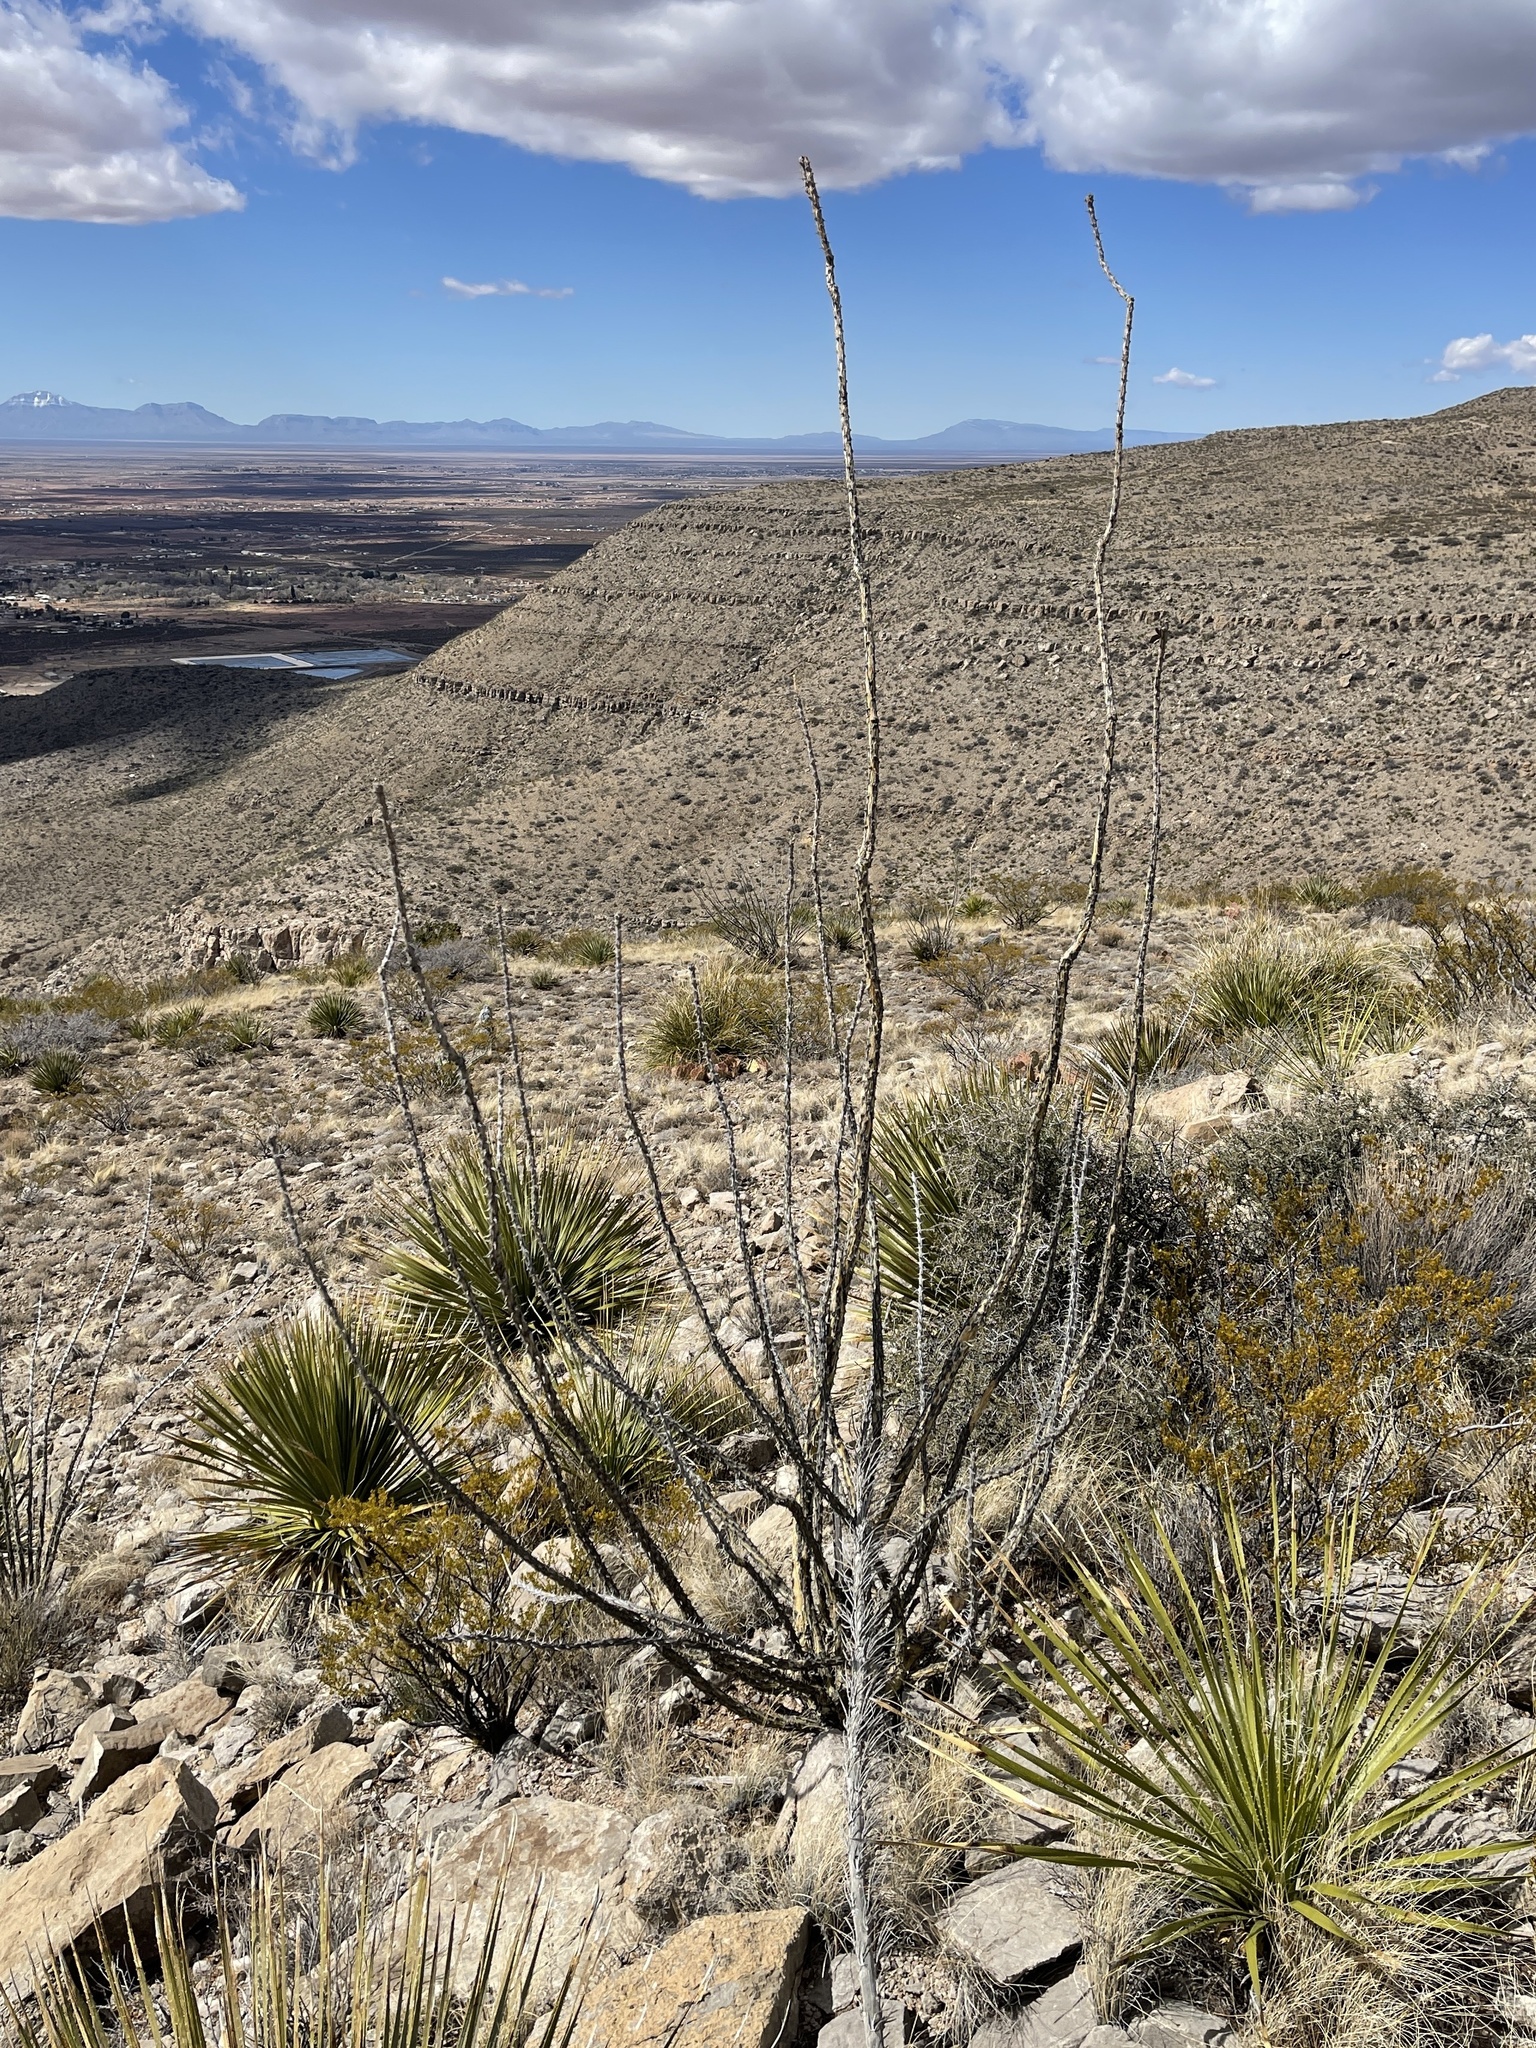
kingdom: Plantae
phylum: Tracheophyta
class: Magnoliopsida
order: Ericales
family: Fouquieriaceae
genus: Fouquieria
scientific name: Fouquieria splendens
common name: Vine-cactus
